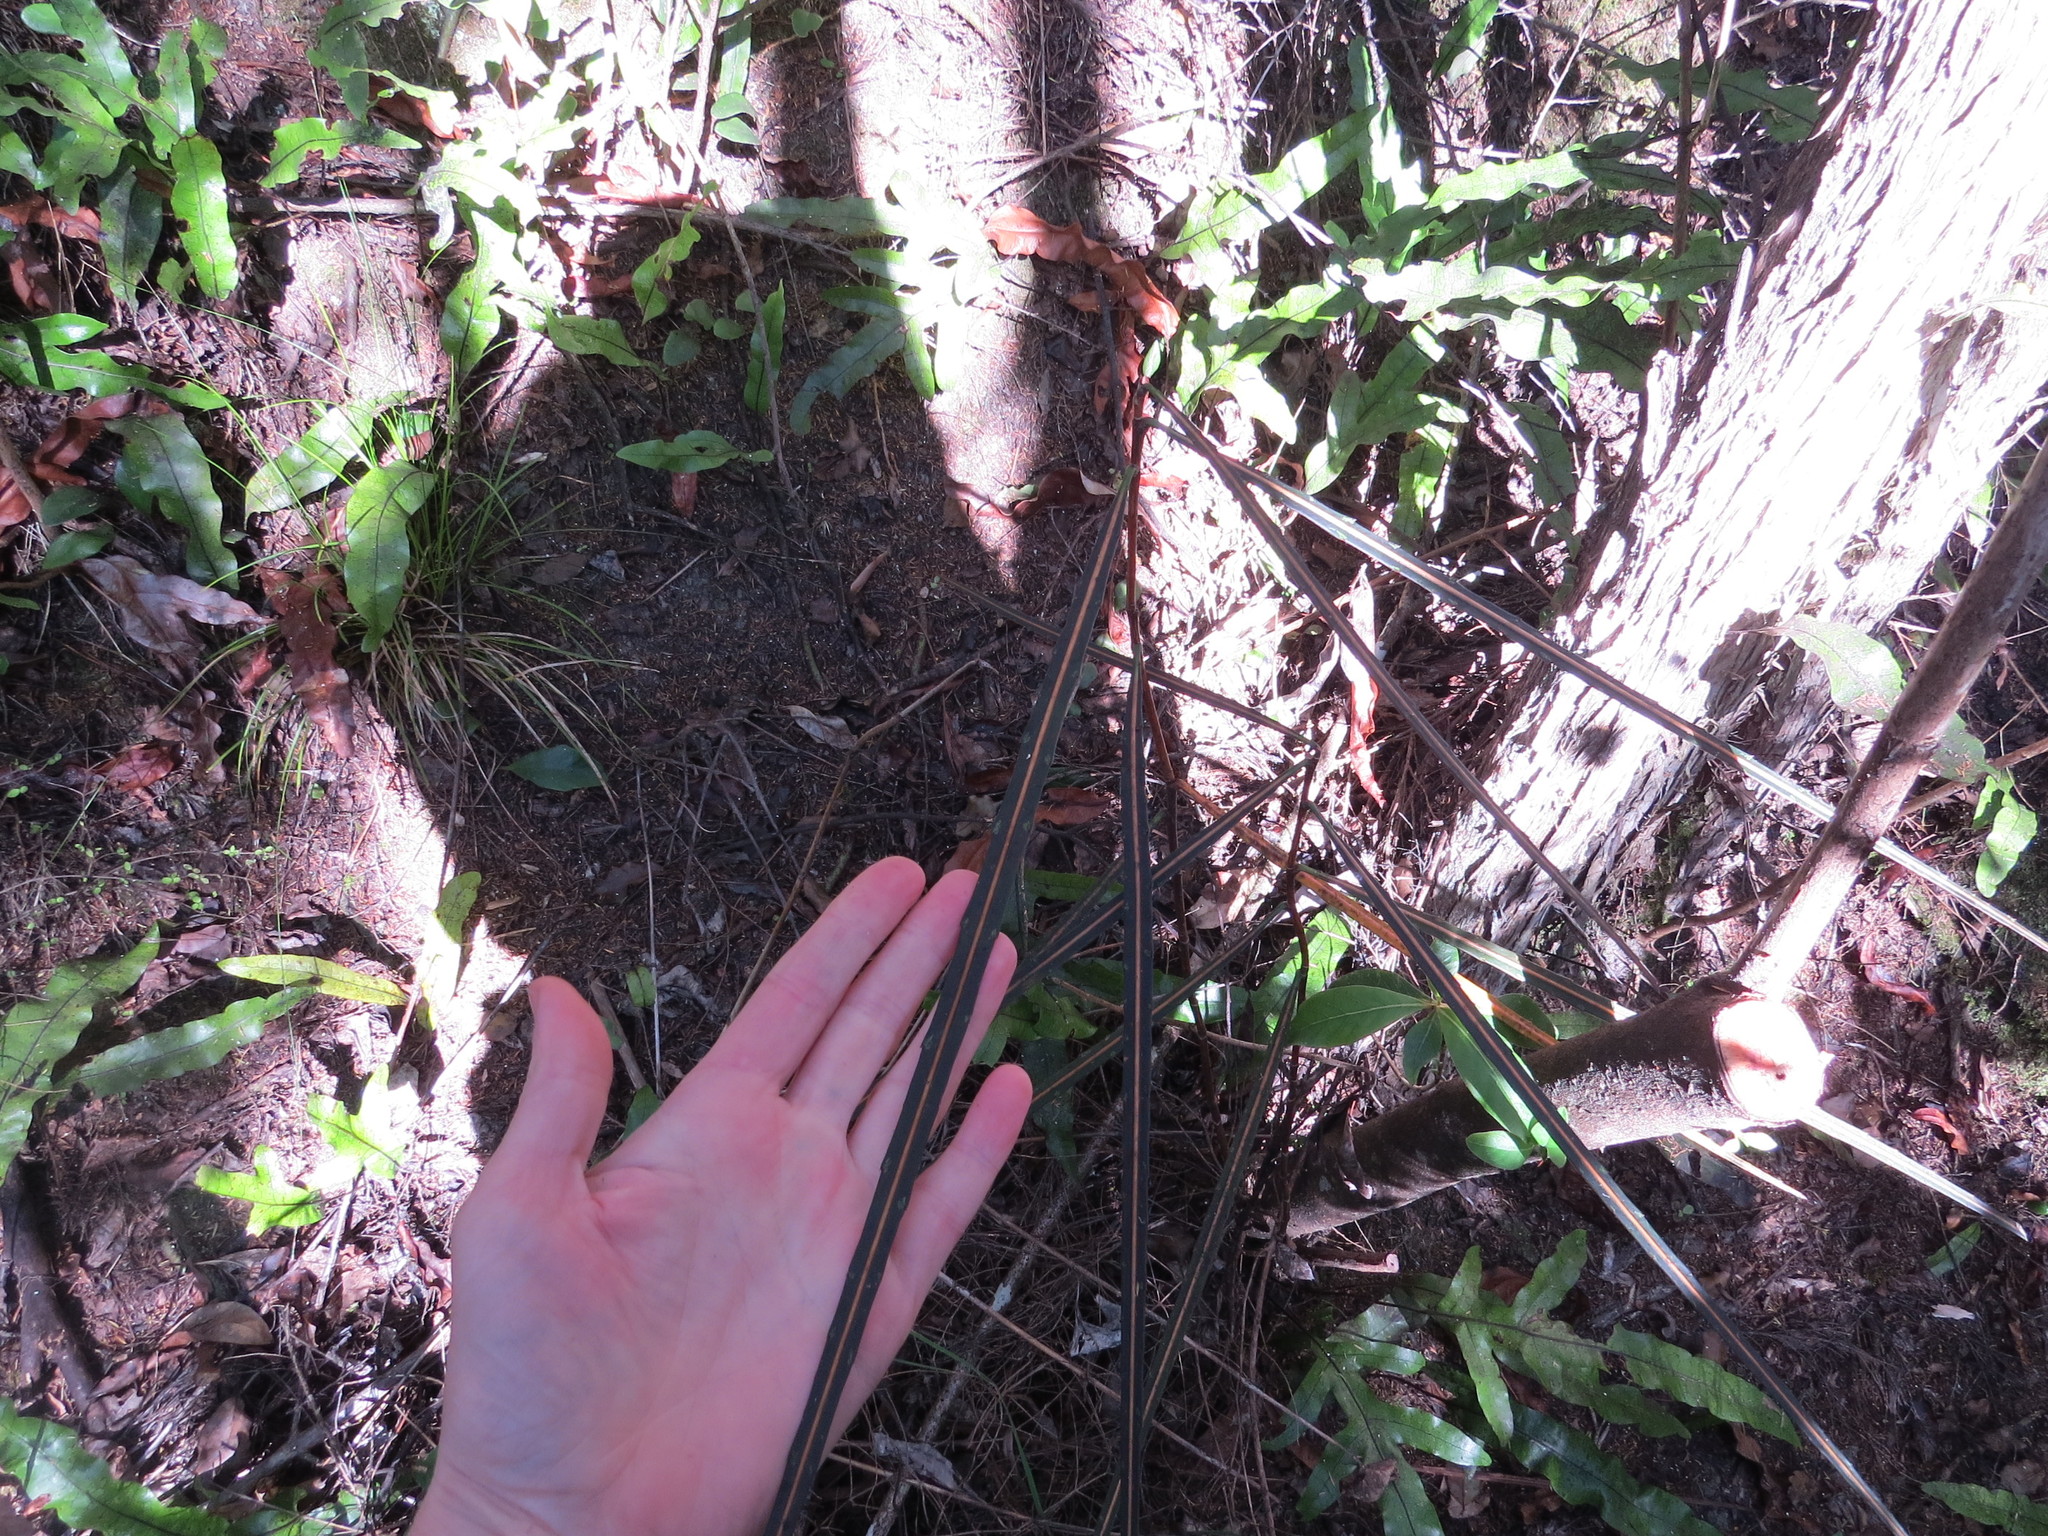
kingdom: Plantae
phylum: Tracheophyta
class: Magnoliopsida
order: Apiales
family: Araliaceae
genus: Pseudopanax
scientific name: Pseudopanax crassifolius
